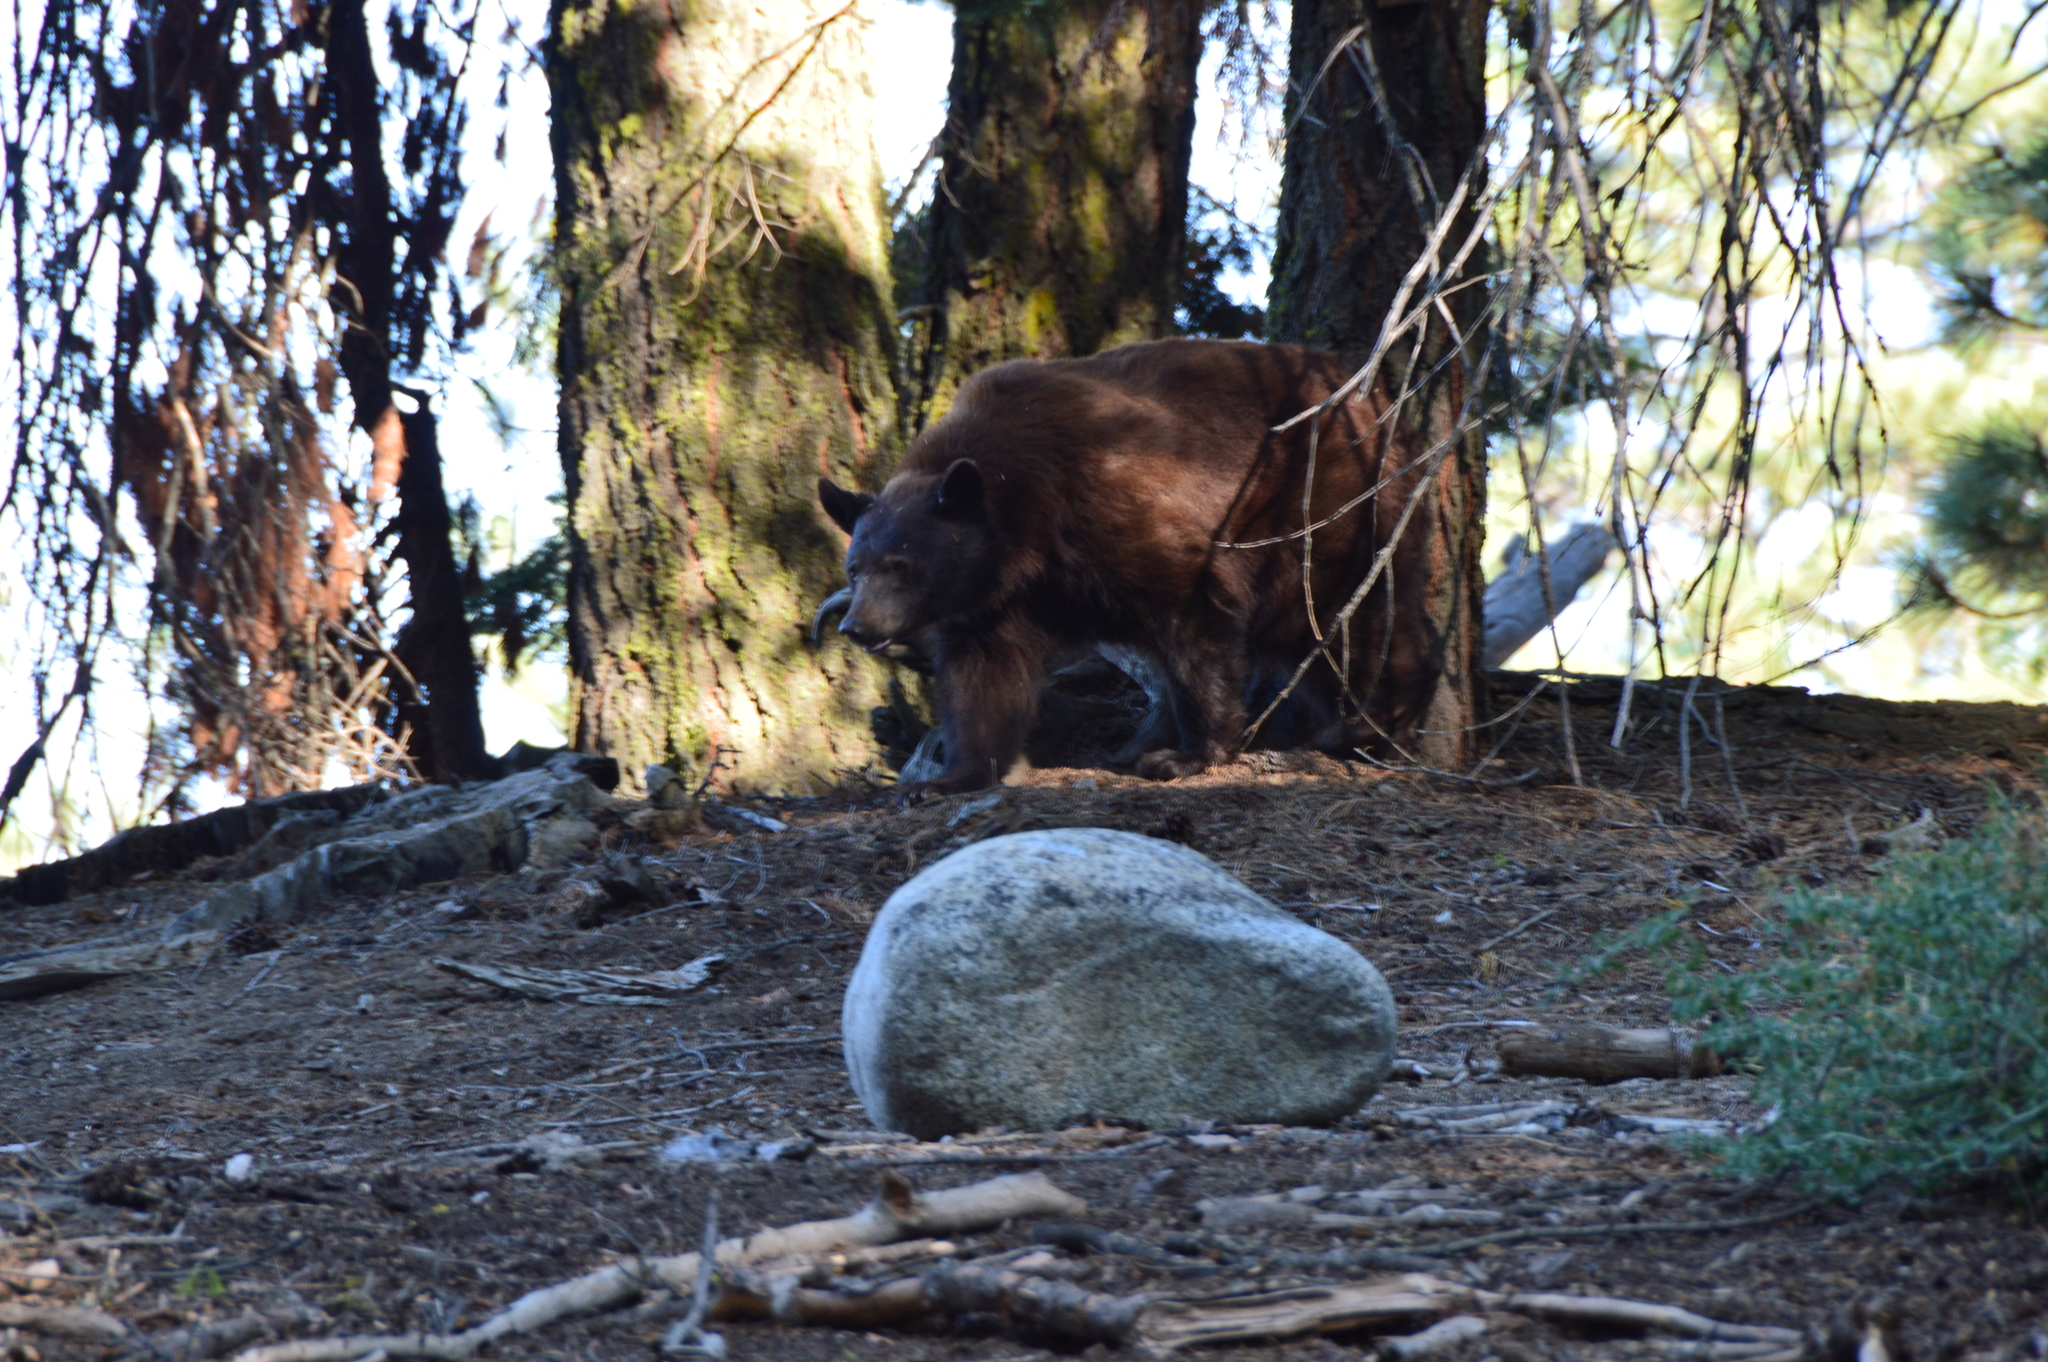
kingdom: Animalia
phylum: Chordata
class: Mammalia
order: Carnivora
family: Ursidae
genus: Ursus
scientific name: Ursus americanus
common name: American black bear
